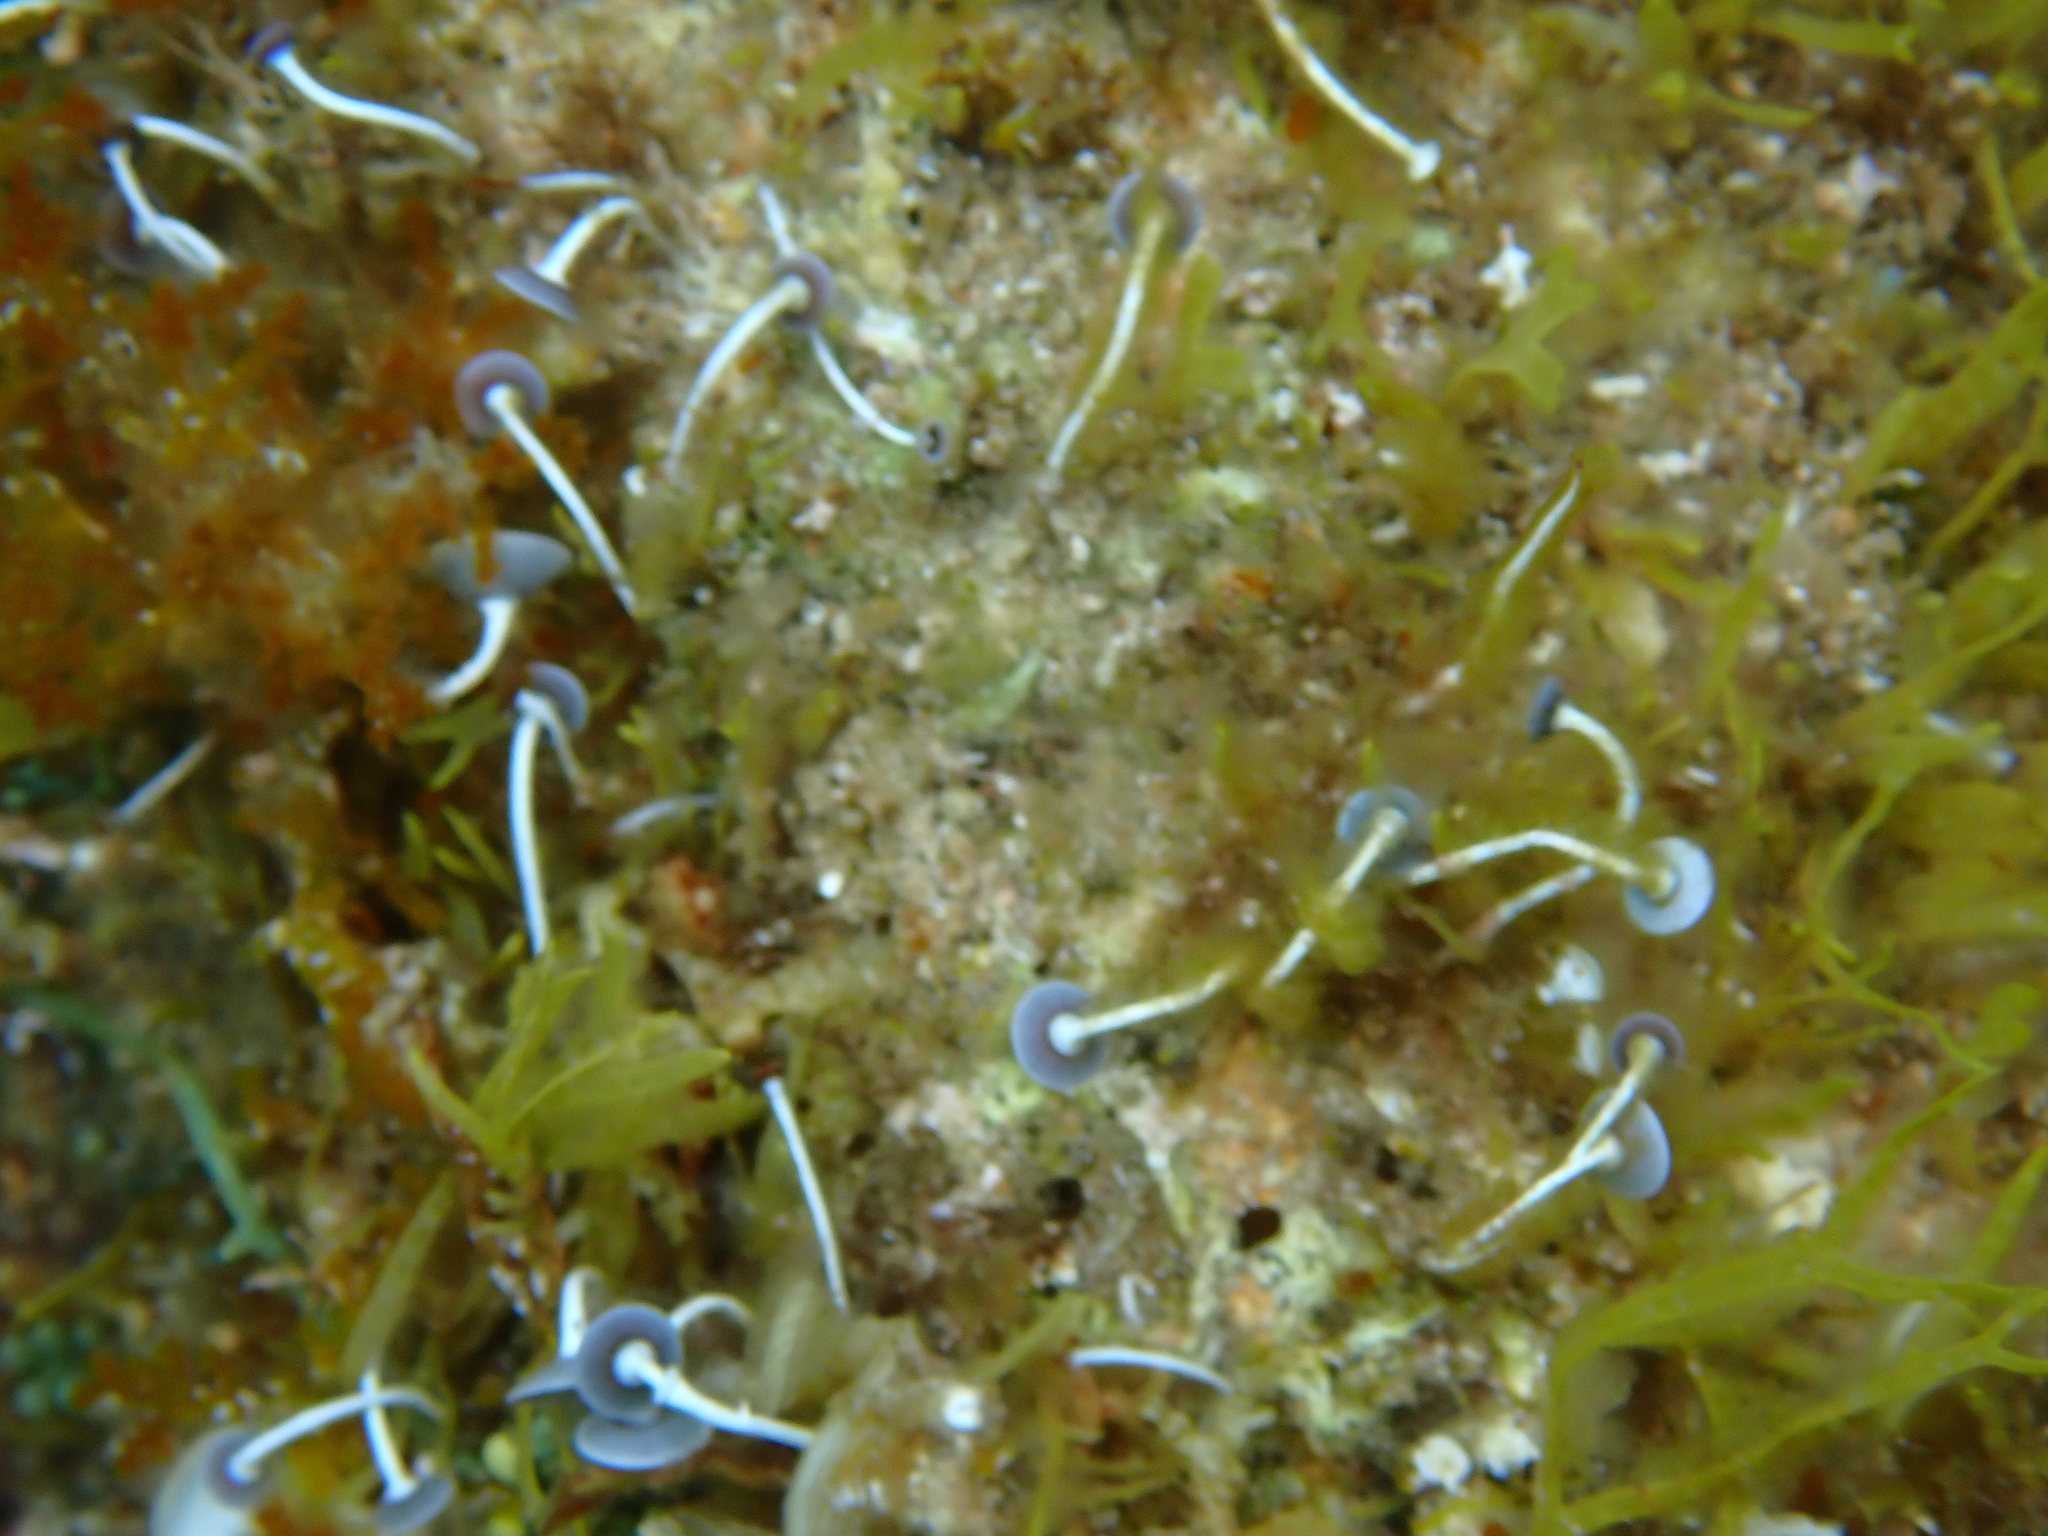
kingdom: Plantae
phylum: Chlorophyta
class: Ulvophyceae
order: Dasycladales
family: Polyphysaceae
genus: Acetabularia
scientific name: Acetabularia acetabulum
